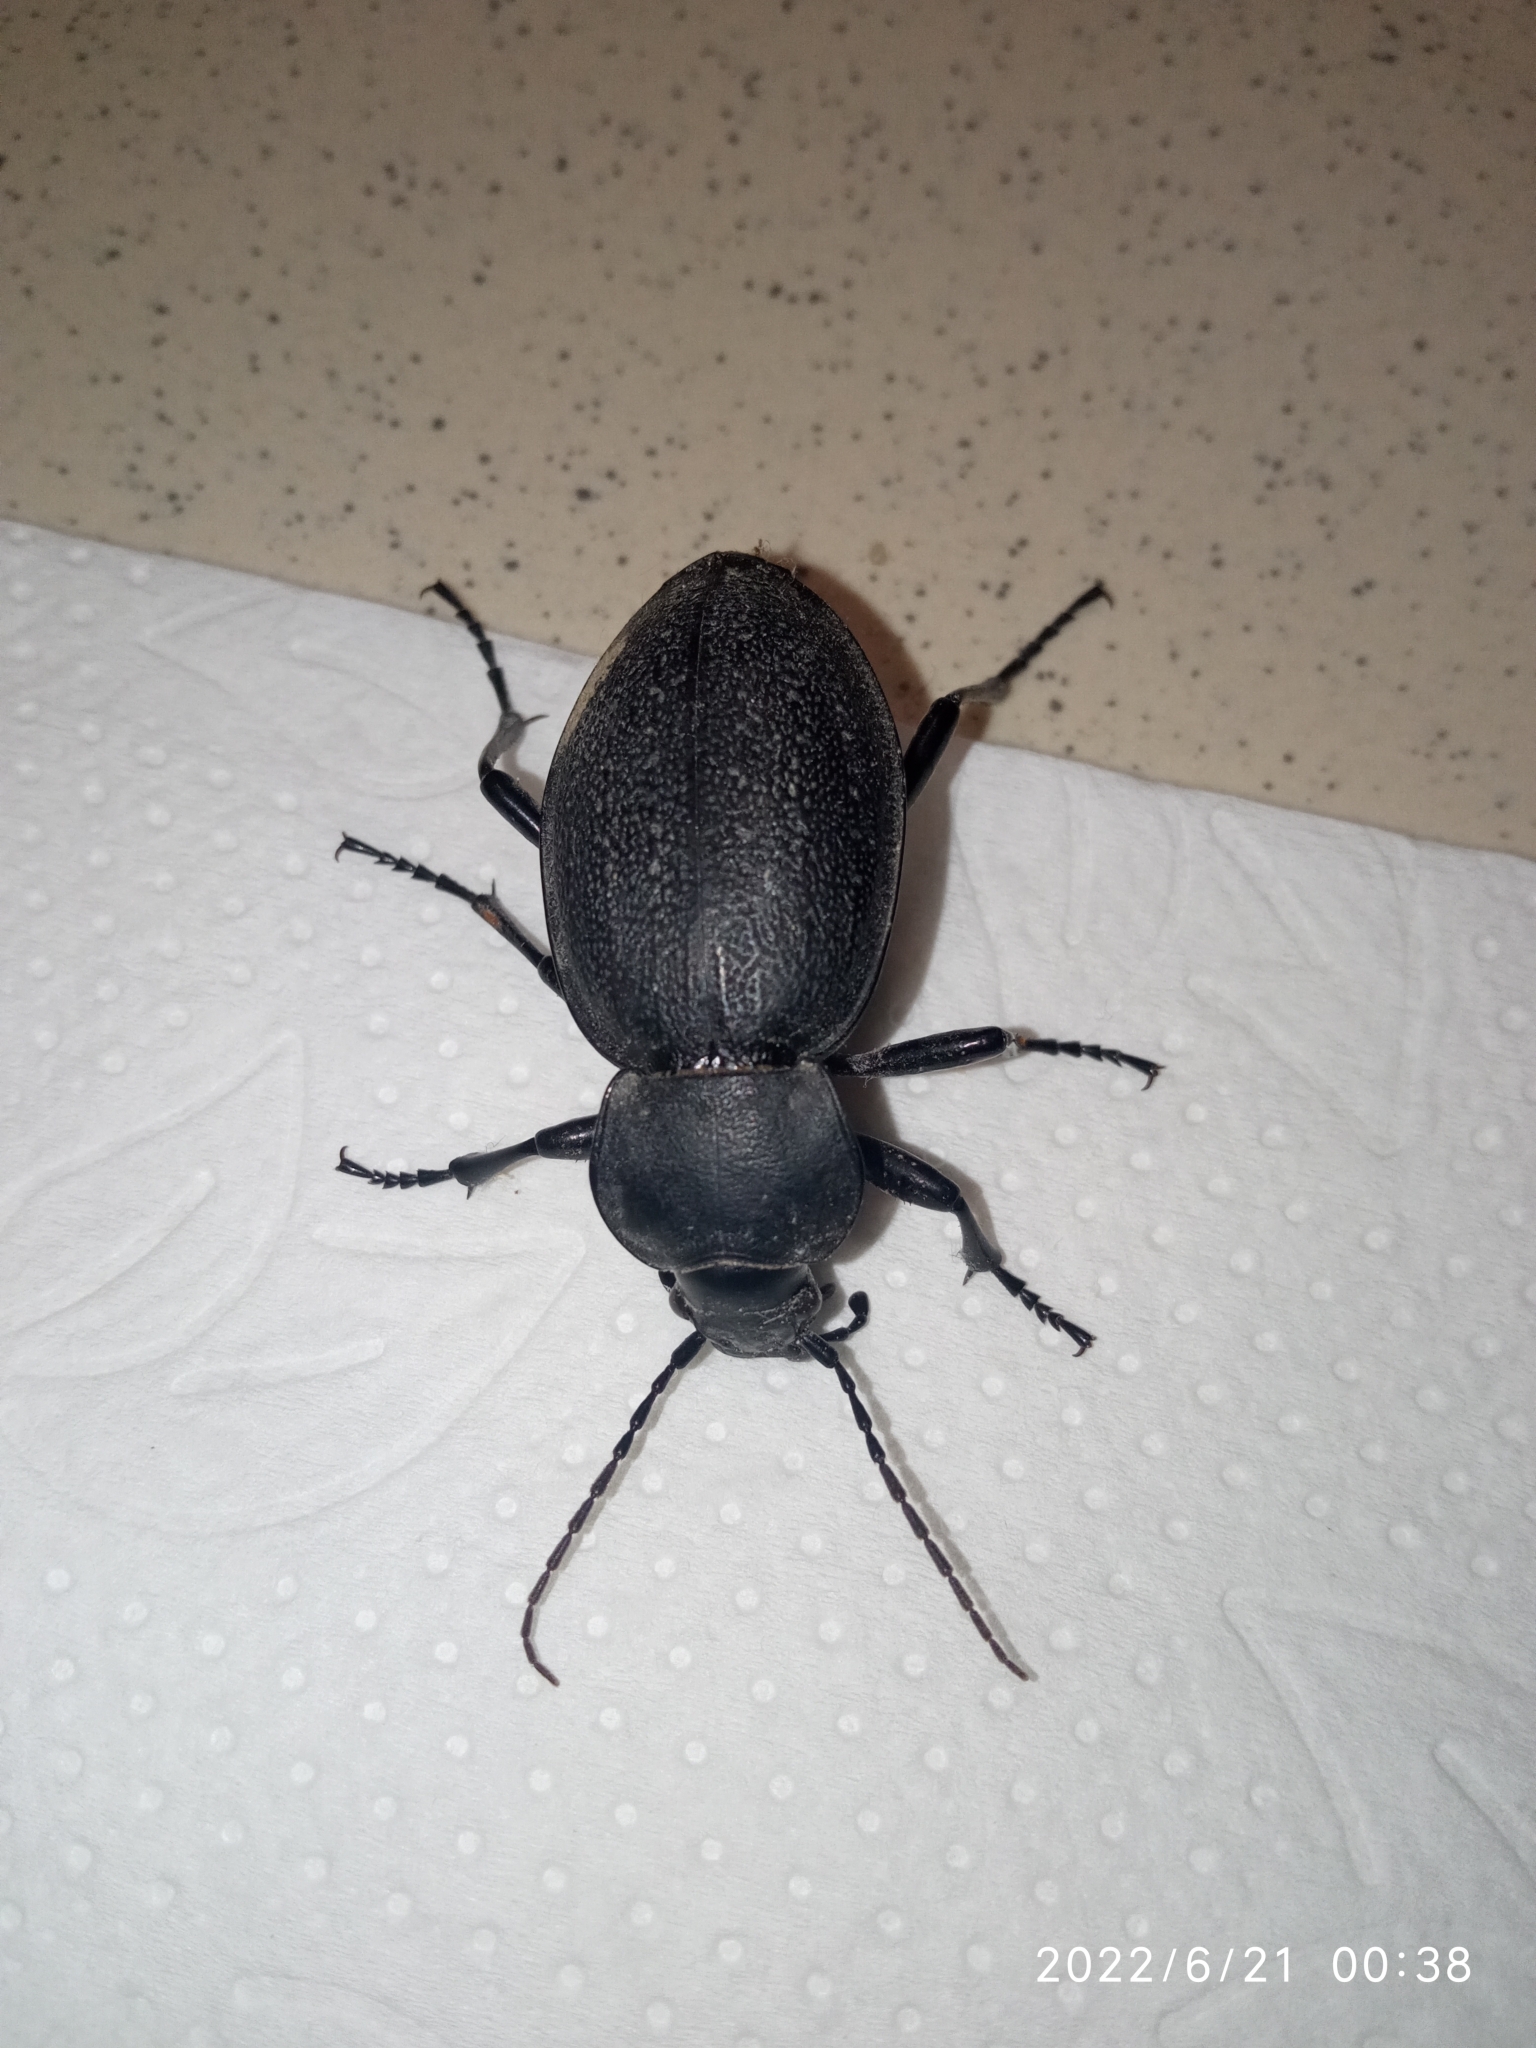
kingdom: Animalia
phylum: Arthropoda
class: Insecta
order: Coleoptera
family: Carabidae
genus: Carabus
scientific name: Carabus coriaceus
